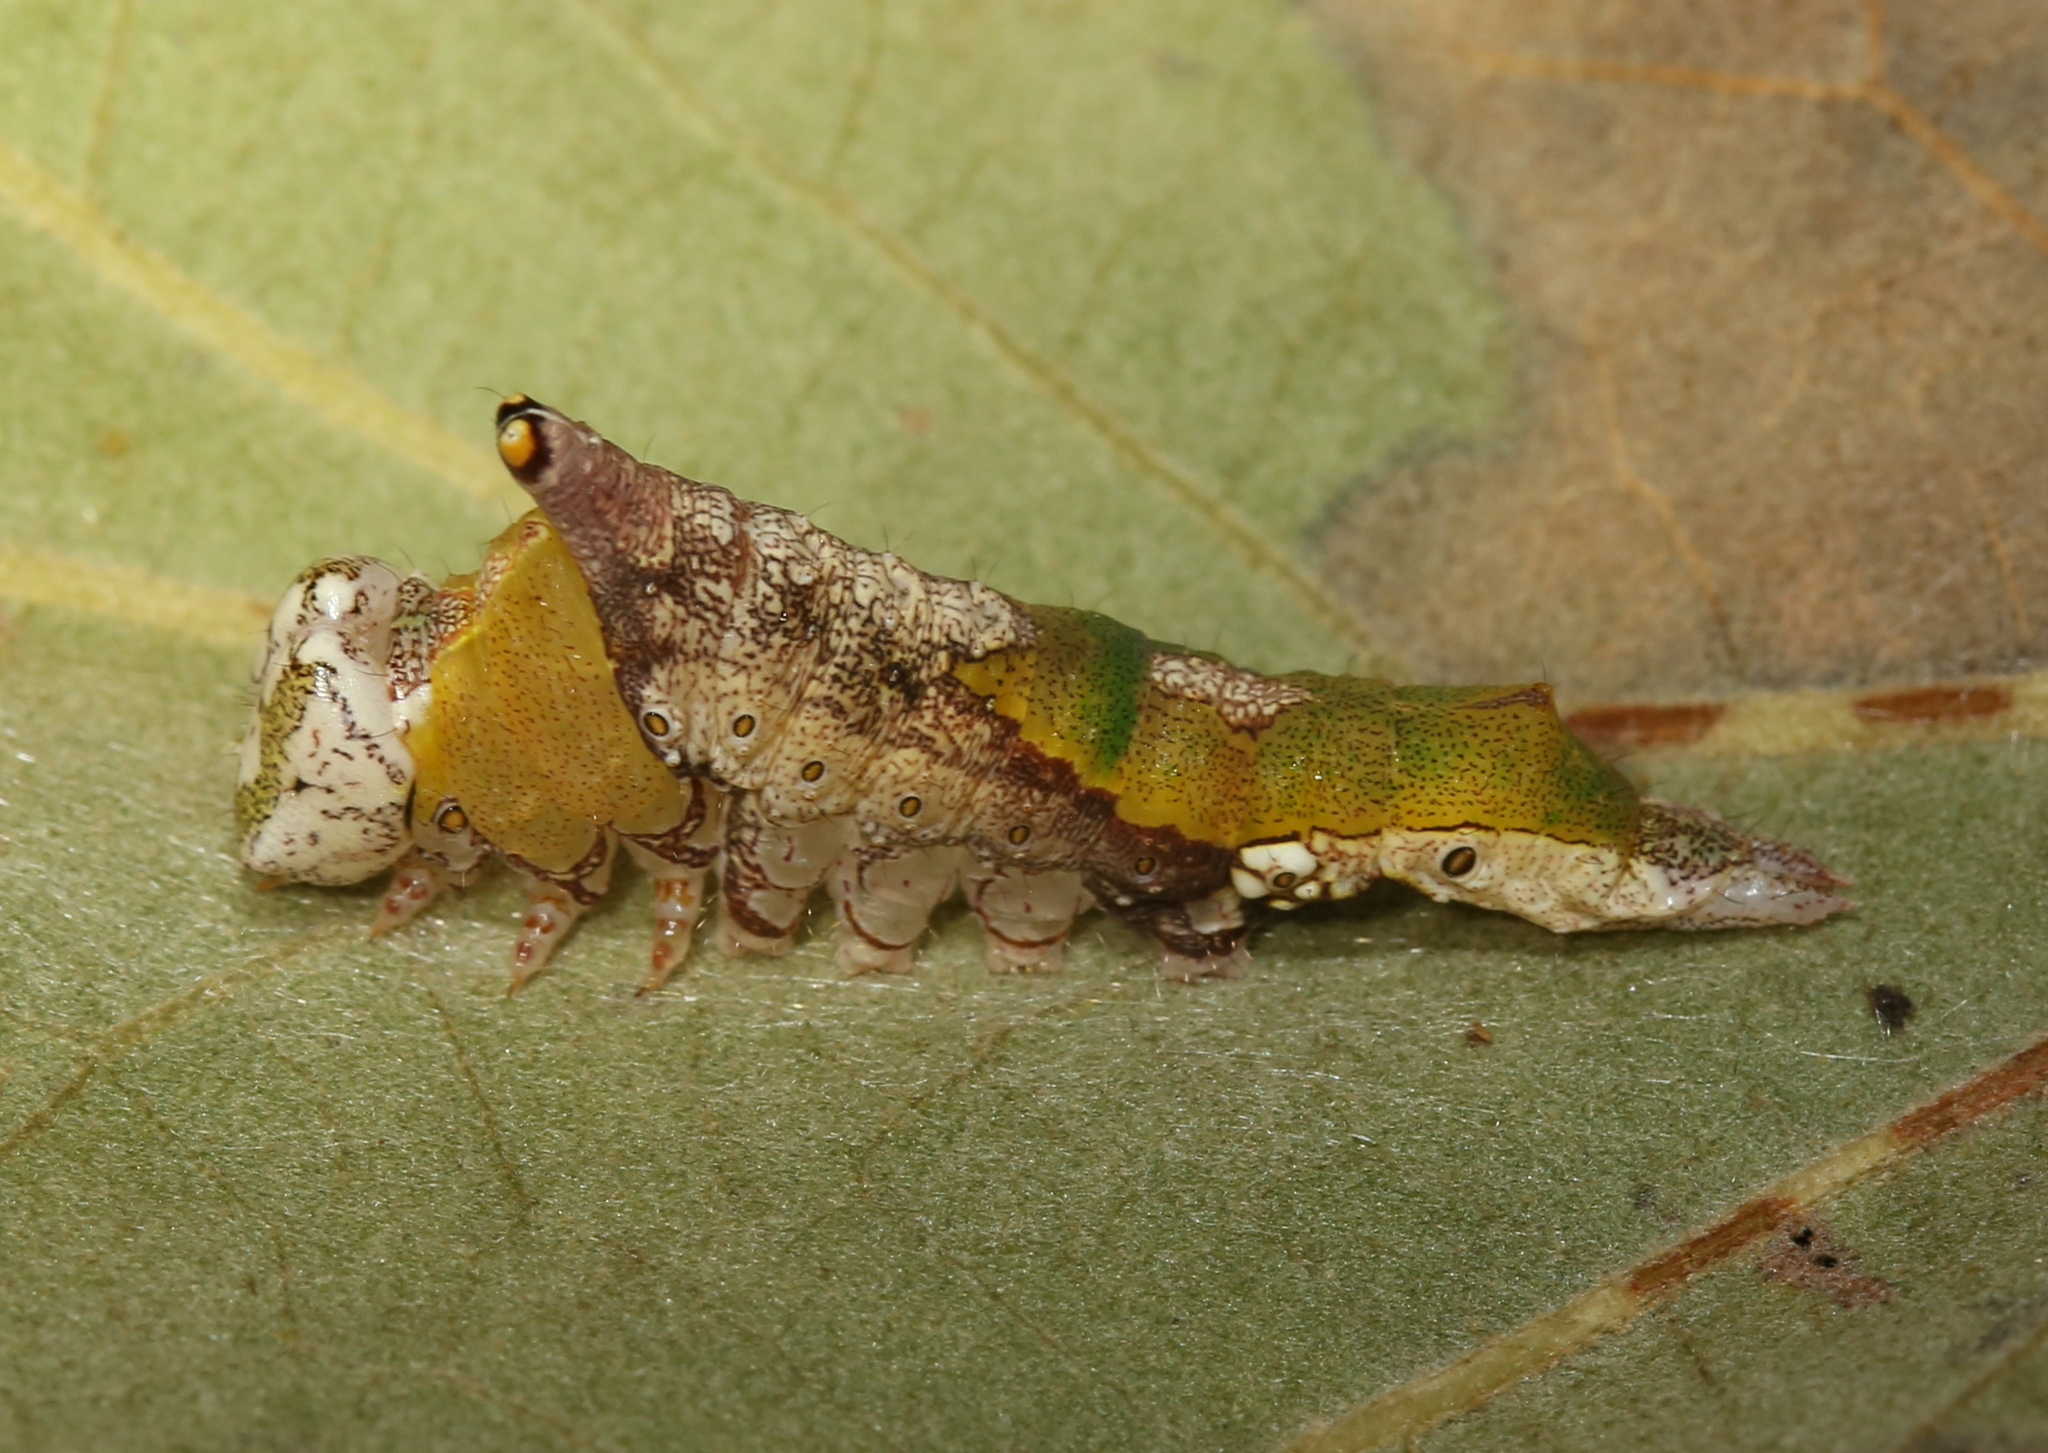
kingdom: Animalia
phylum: Arthropoda
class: Insecta
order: Lepidoptera
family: Notodontidae
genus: Oligocentria
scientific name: Oligocentria Ianassa lignicolor
